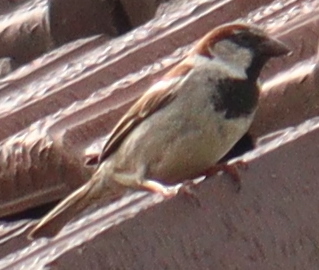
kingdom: Animalia
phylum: Chordata
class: Aves
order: Passeriformes
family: Passeridae
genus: Passer
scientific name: Passer domesticus
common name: House sparrow
